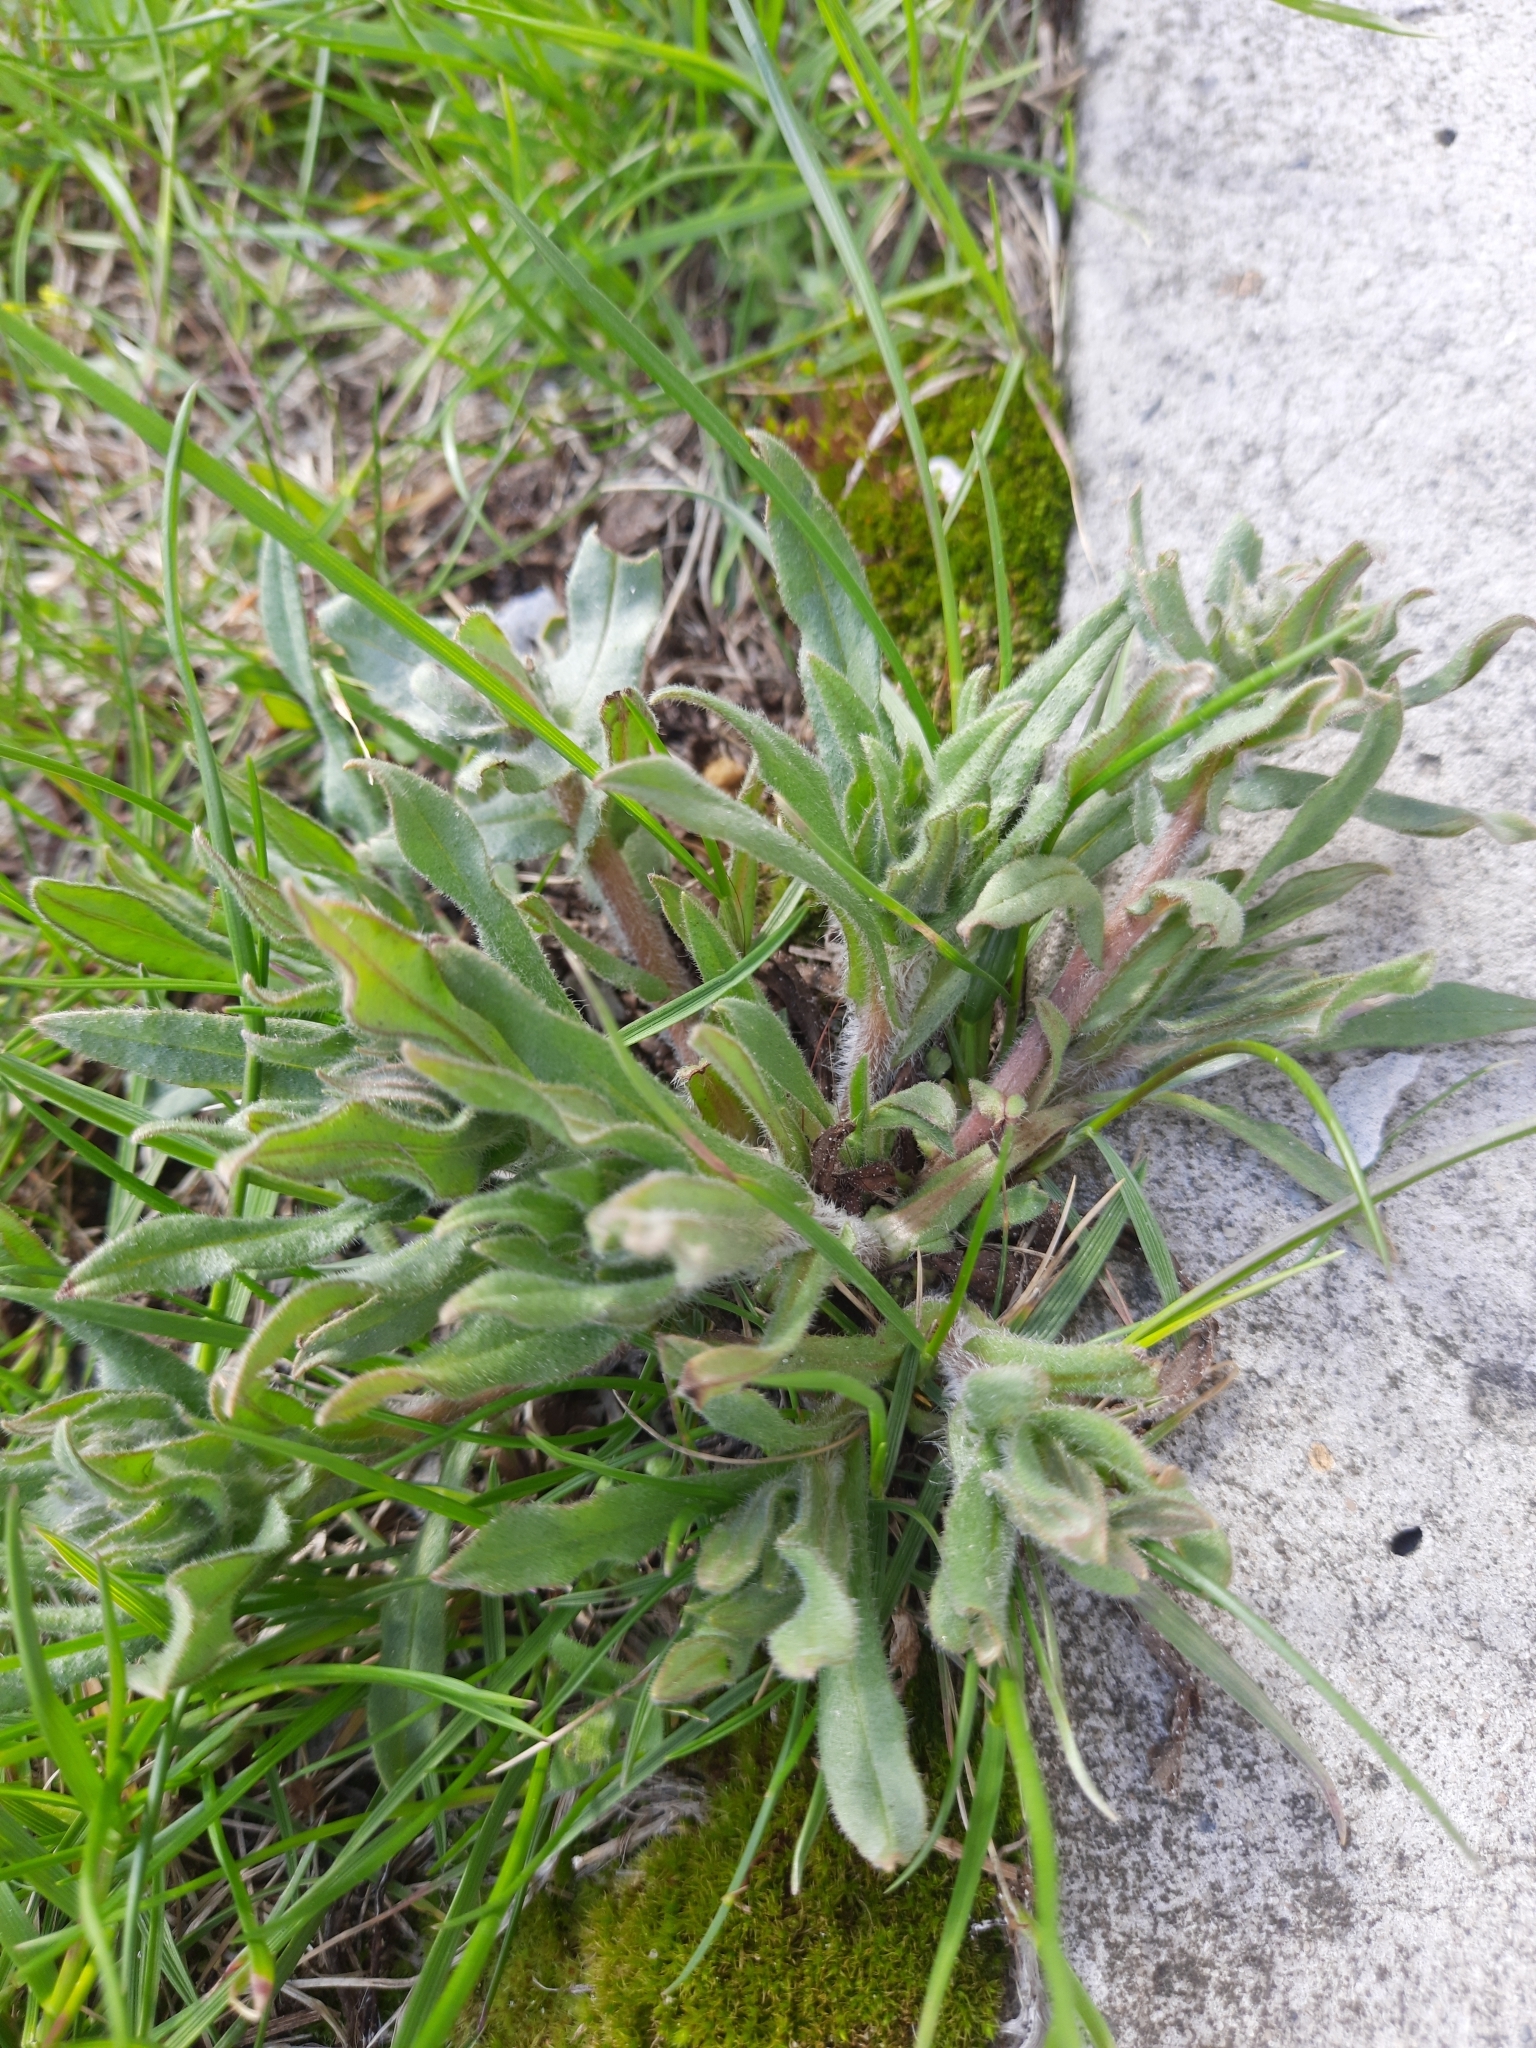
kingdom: Plantae
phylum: Tracheophyta
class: Magnoliopsida
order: Boraginales
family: Boraginaceae
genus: Nonea
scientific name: Nonea pulla
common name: Brown nonea
